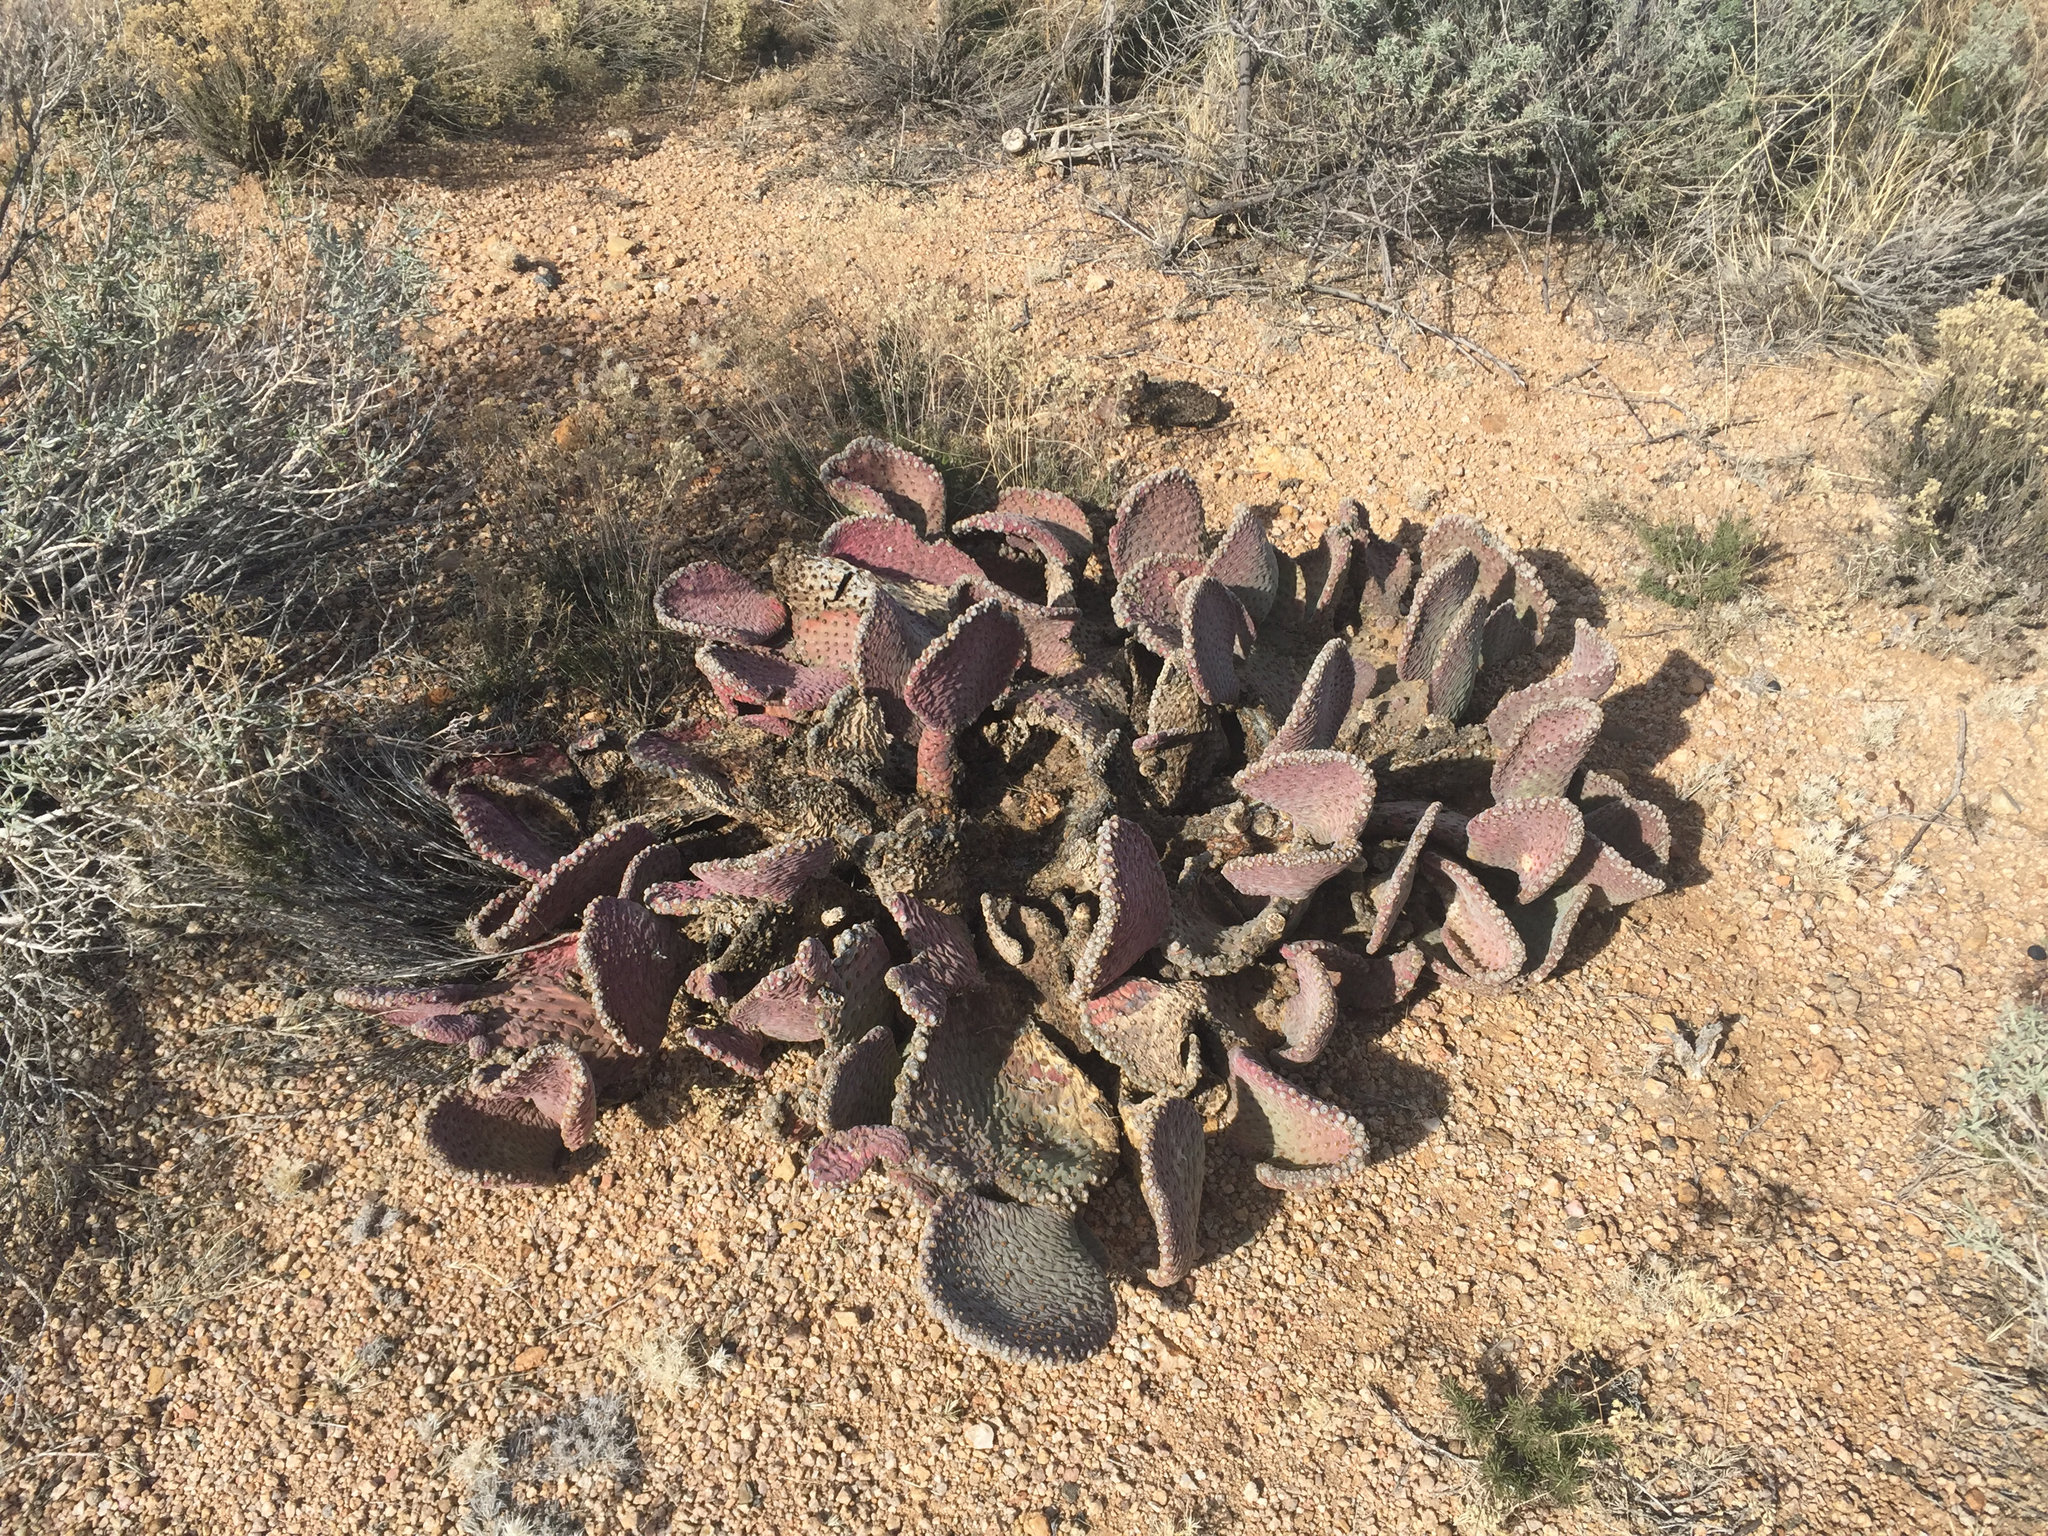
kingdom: Plantae
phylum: Tracheophyta
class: Magnoliopsida
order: Caryophyllales
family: Cactaceae
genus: Opuntia
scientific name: Opuntia basilaris
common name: Beavertail prickly-pear
